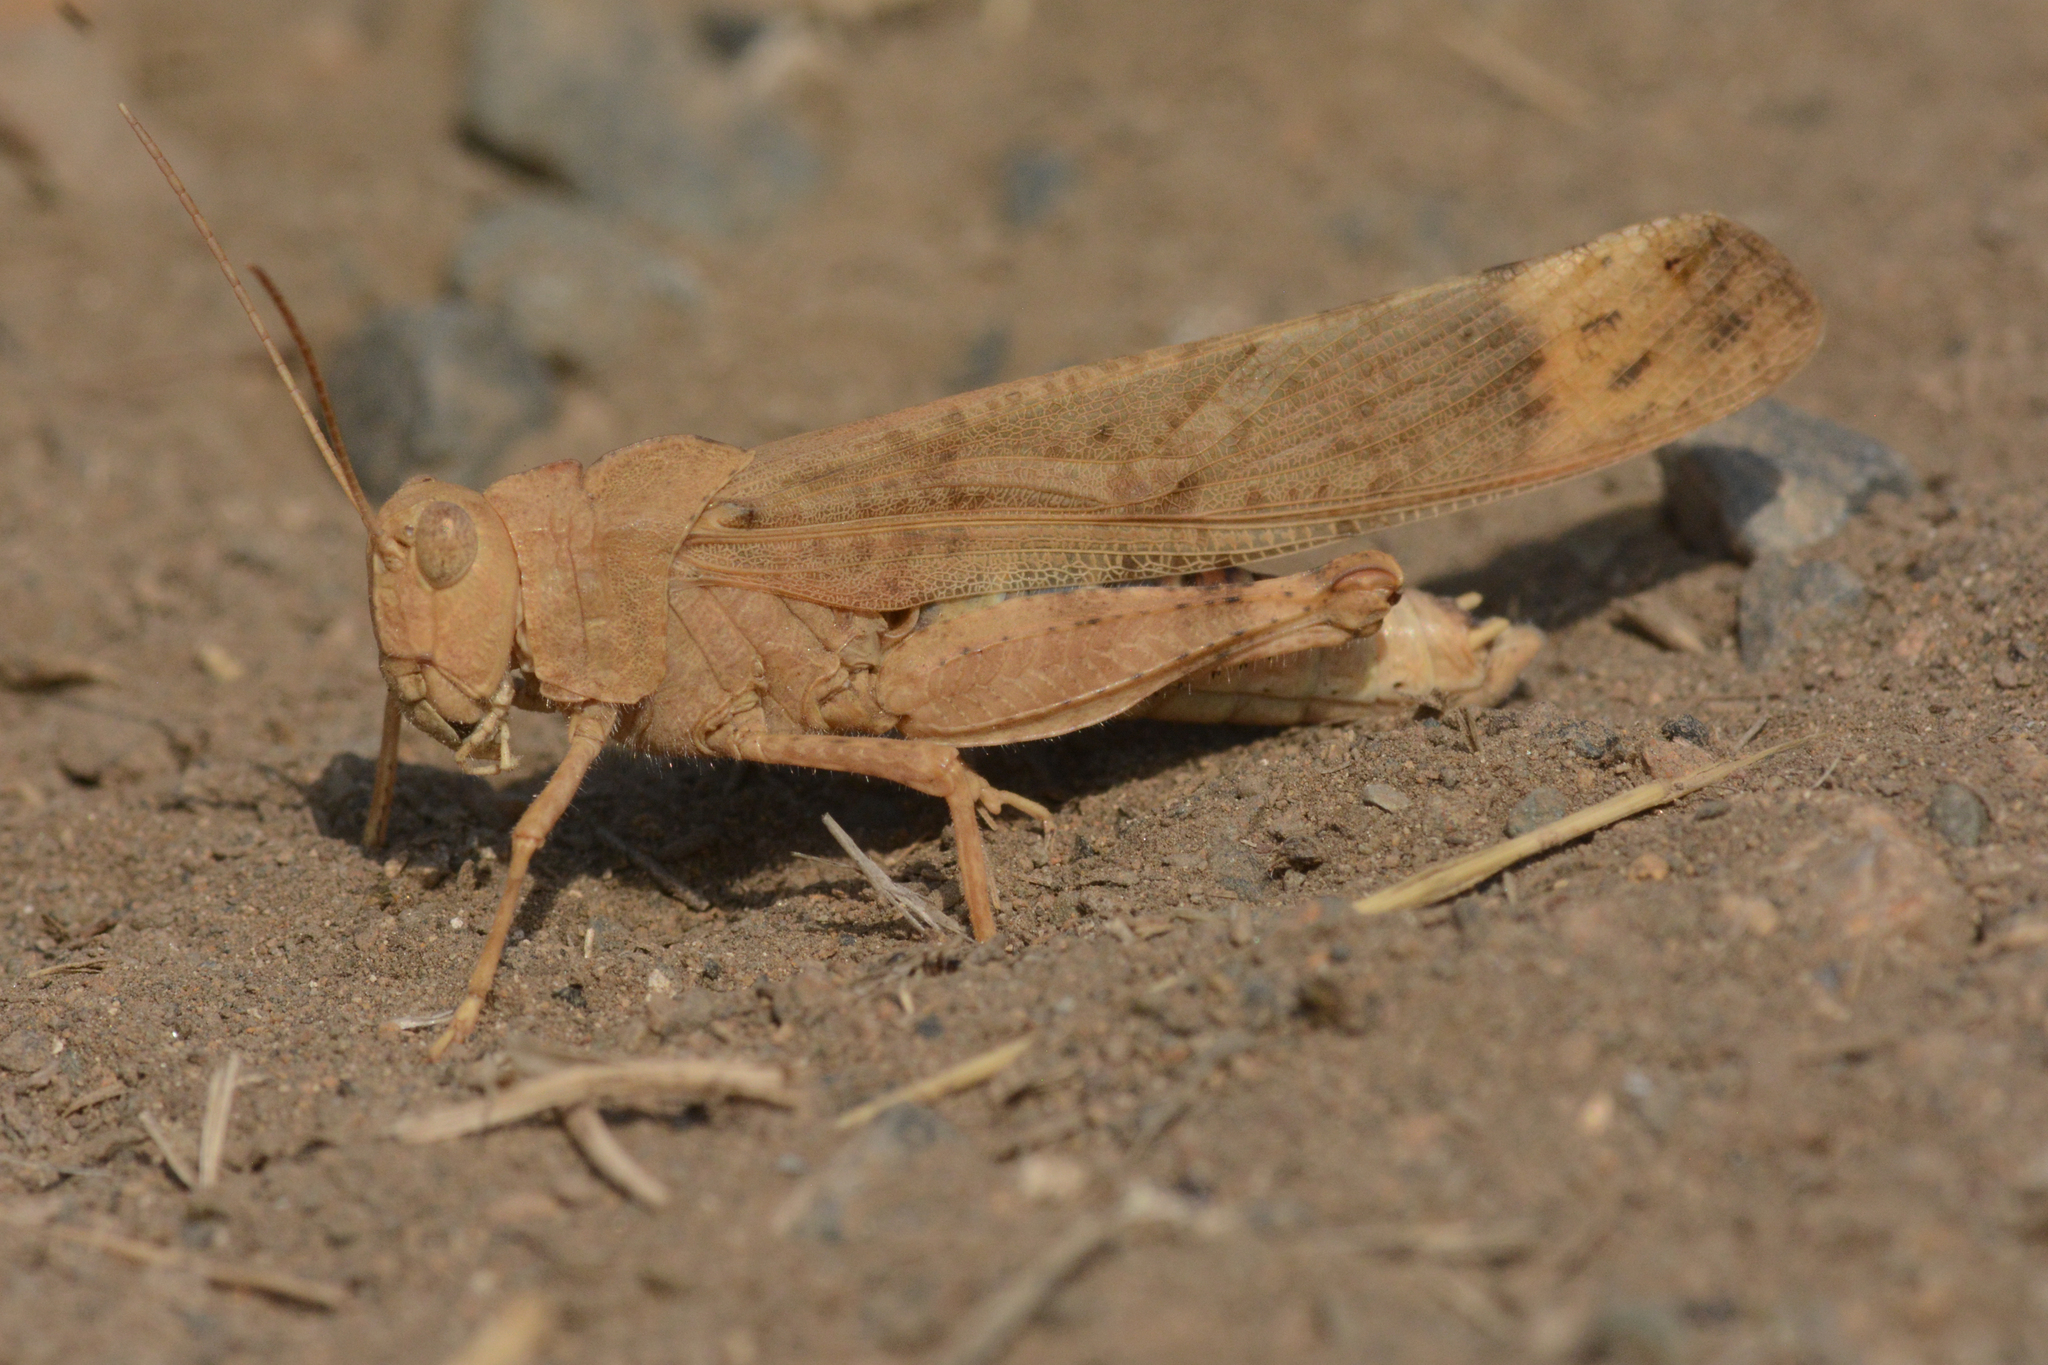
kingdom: Animalia
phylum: Arthropoda
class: Insecta
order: Orthoptera
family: Acrididae
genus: Dissosteira
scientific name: Dissosteira carolina
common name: Carolina grasshopper
